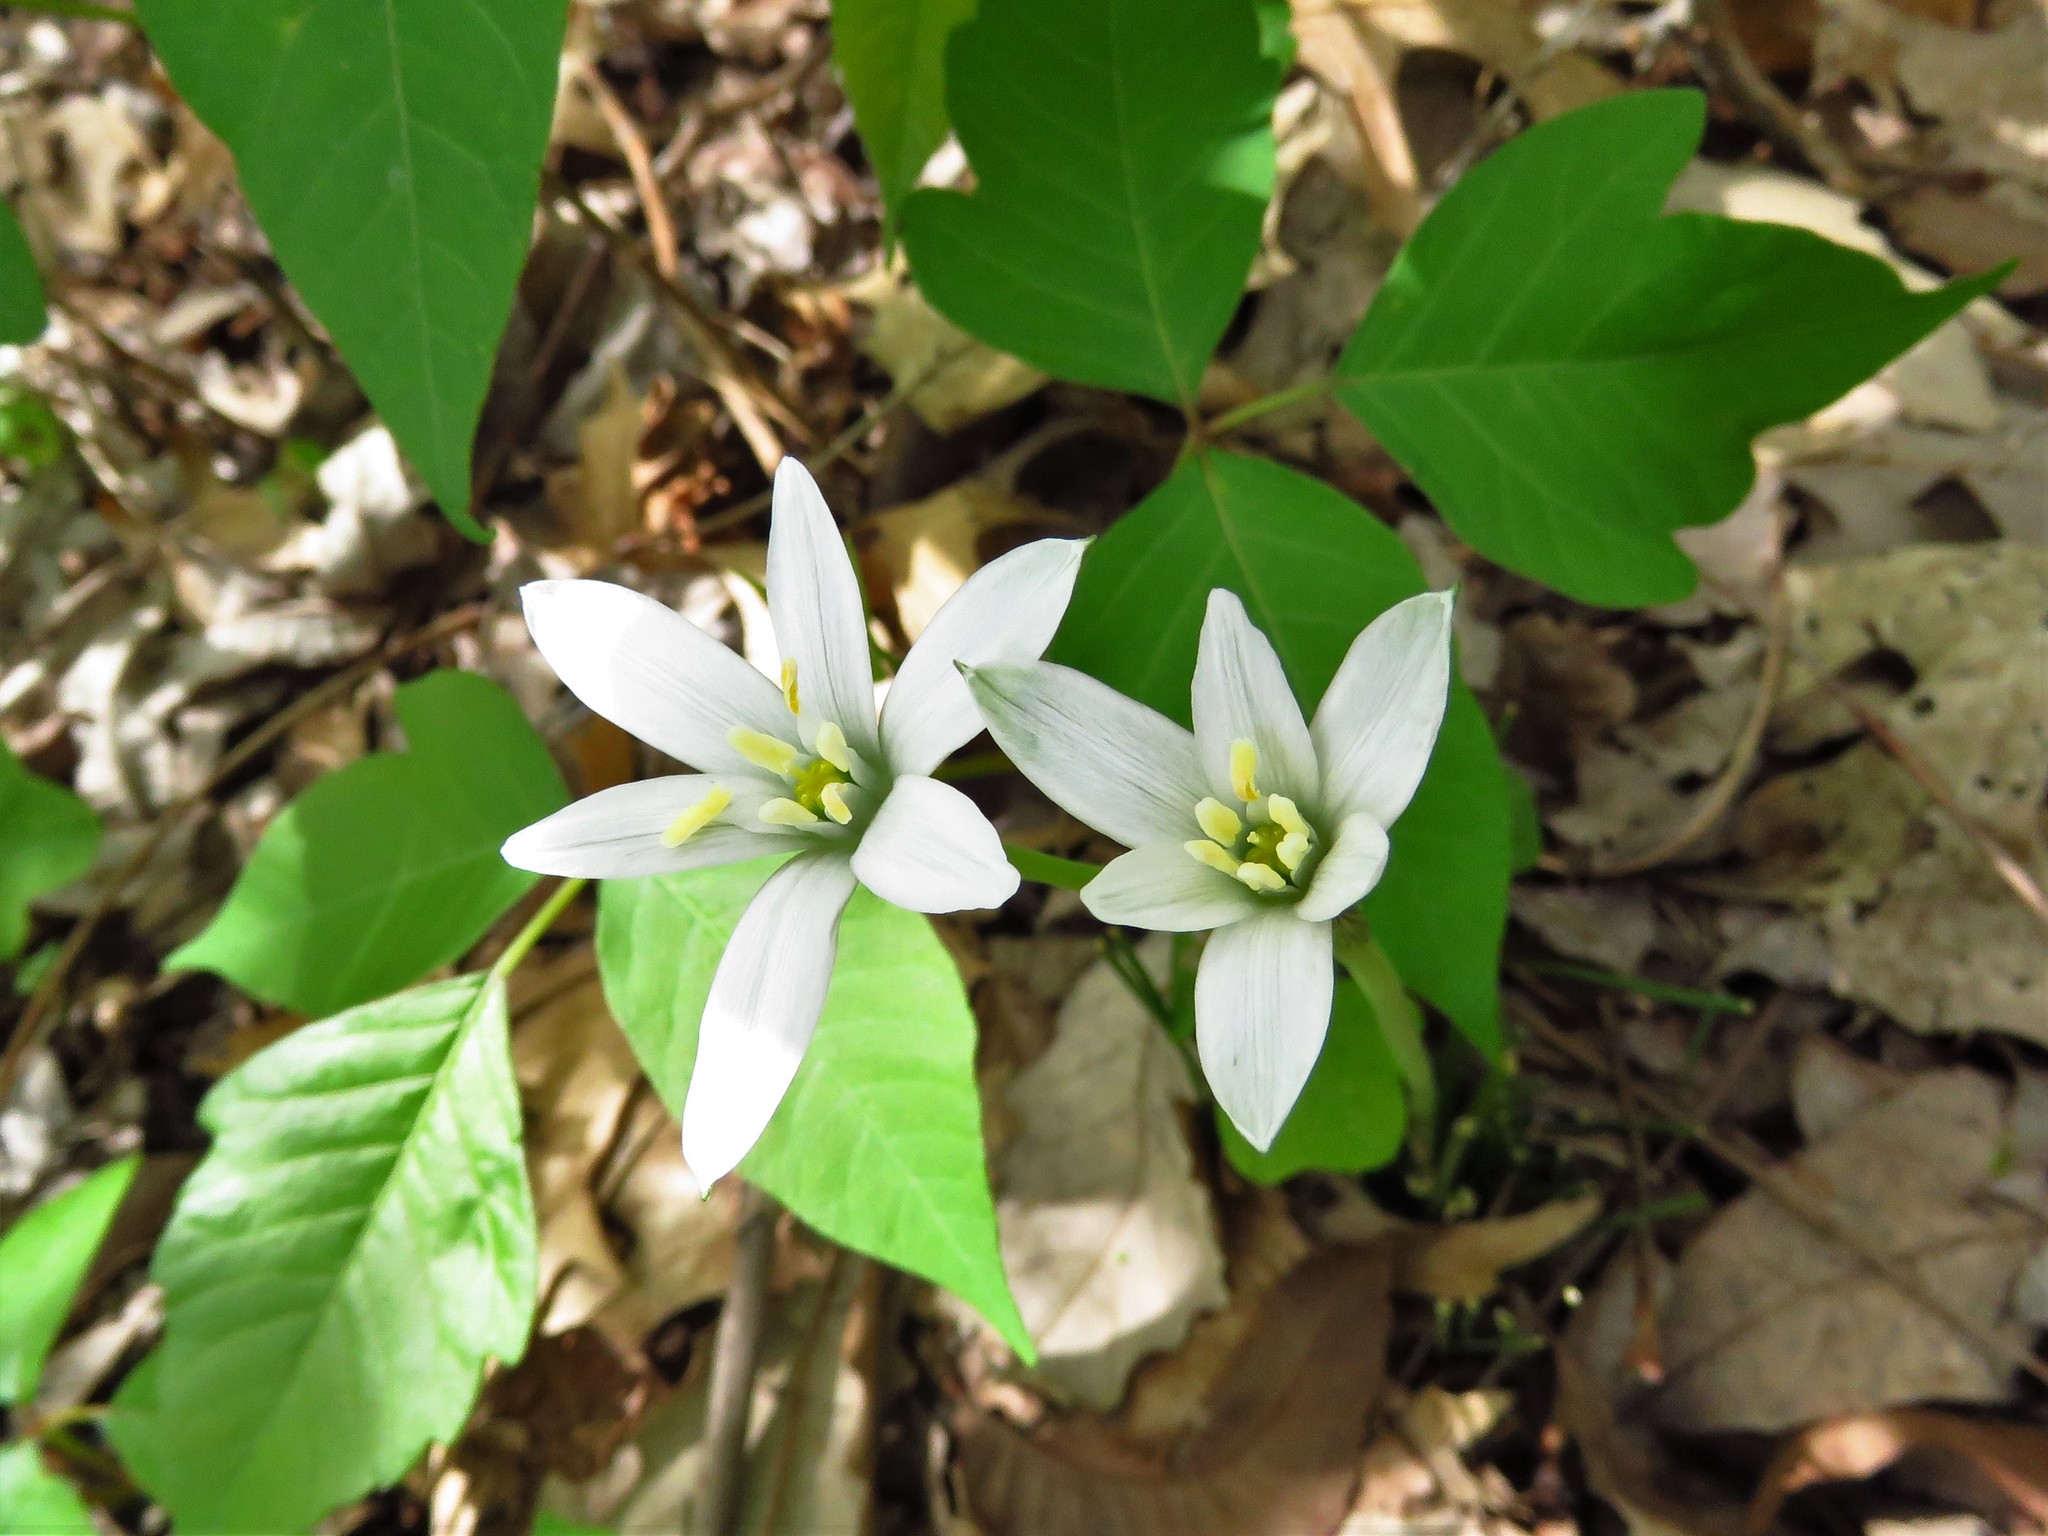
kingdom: Plantae
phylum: Tracheophyta
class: Liliopsida
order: Asparagales
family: Amaryllidaceae
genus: Nothoscordum
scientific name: Nothoscordum bivalve
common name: Crow-poison
